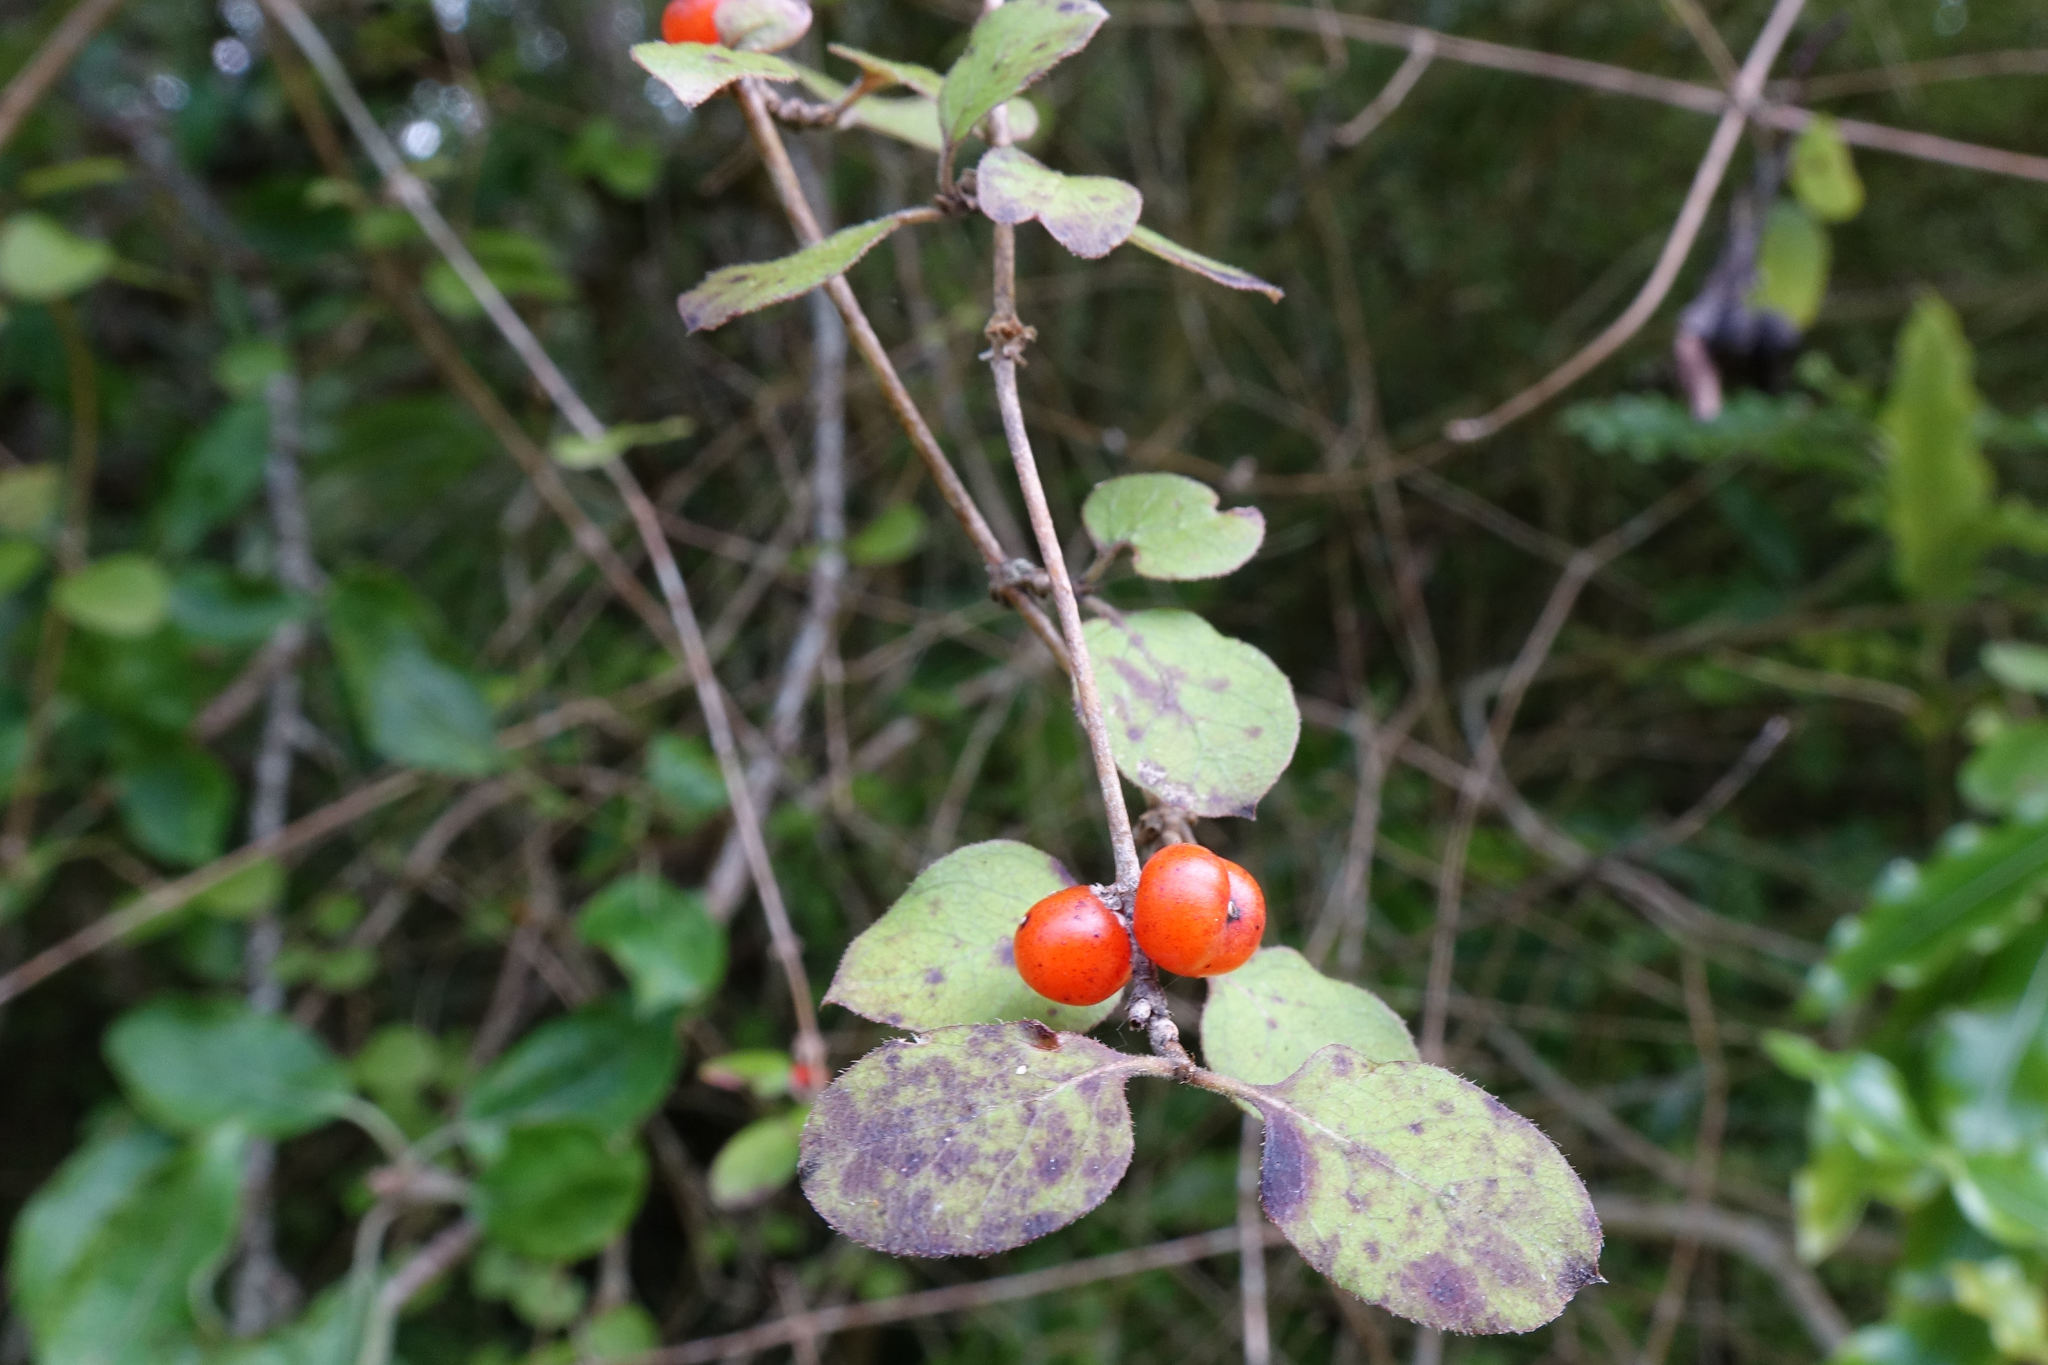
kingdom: Plantae
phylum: Tracheophyta
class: Magnoliopsida
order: Gentianales
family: Rubiaceae
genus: Coprosma
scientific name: Coprosma rotundifolia
